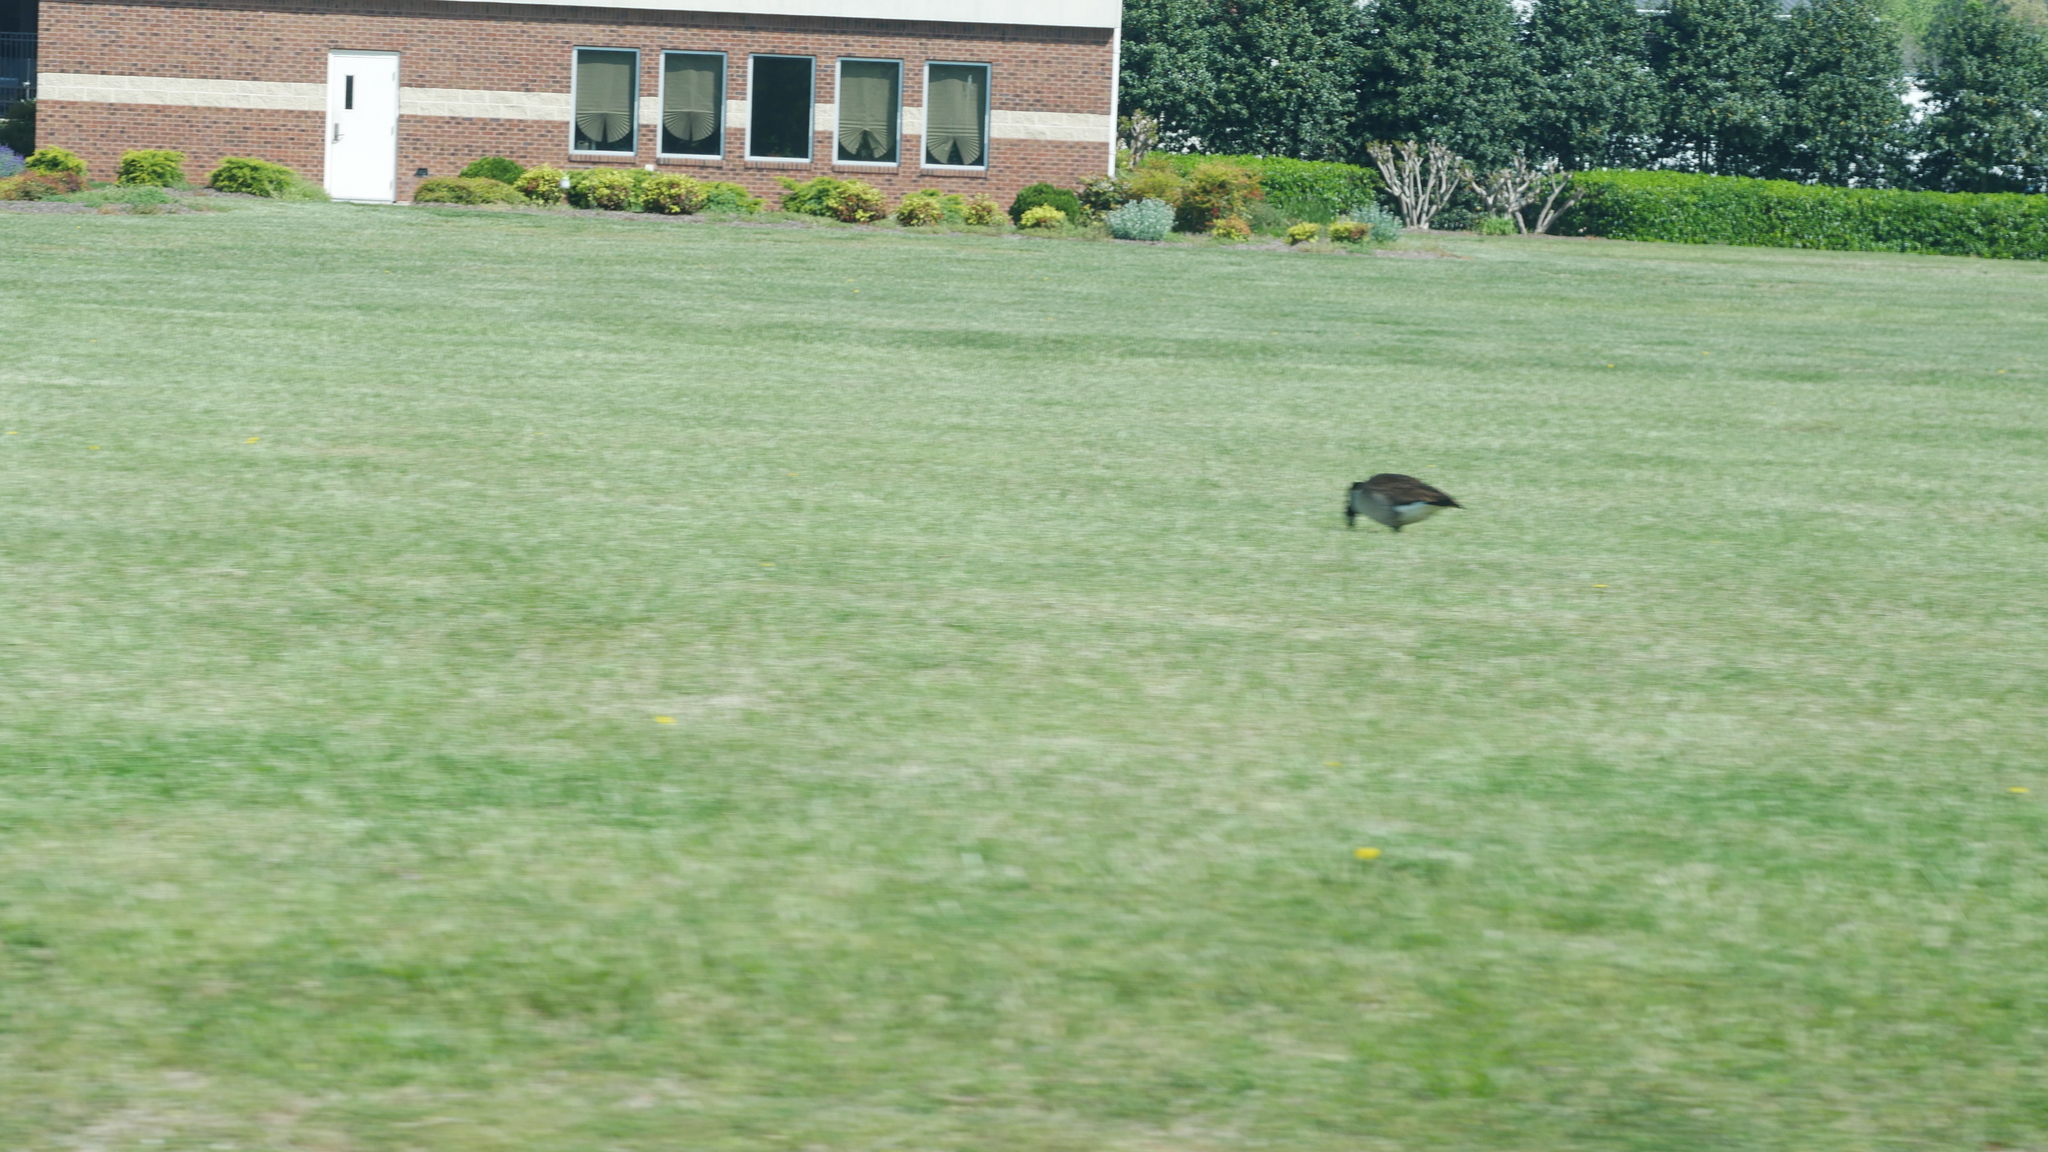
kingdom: Animalia
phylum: Chordata
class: Aves
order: Anseriformes
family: Anatidae
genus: Branta
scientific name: Branta canadensis
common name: Canada goose
